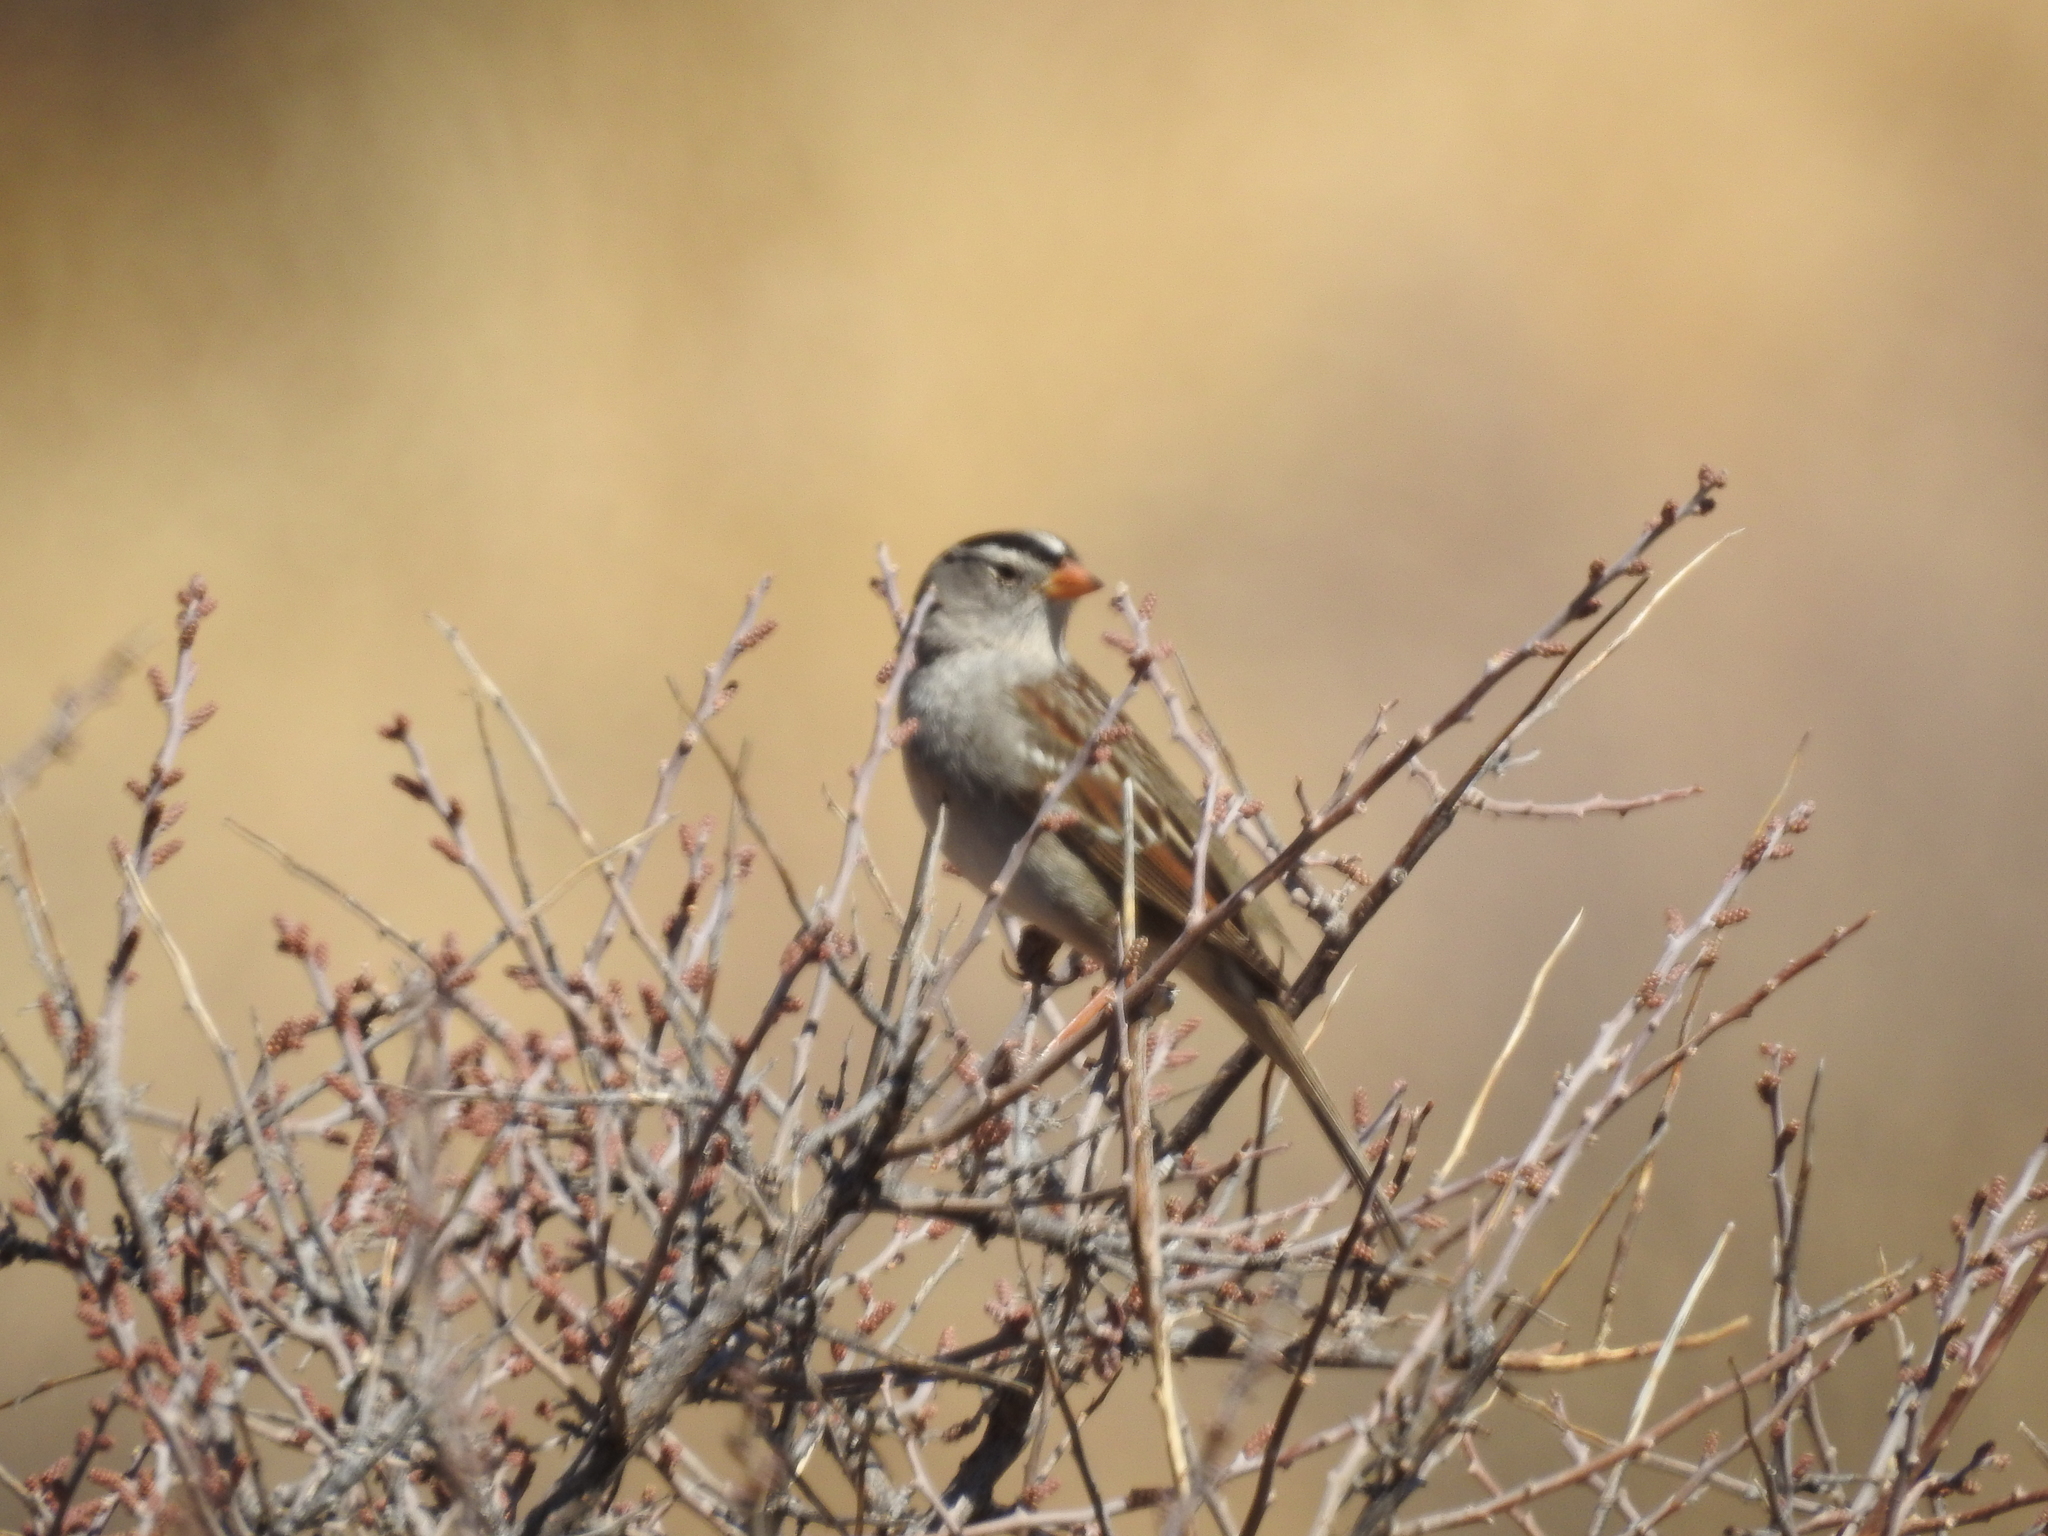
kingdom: Animalia
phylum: Chordata
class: Aves
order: Passeriformes
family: Passerellidae
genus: Zonotrichia
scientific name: Zonotrichia leucophrys
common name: White-crowned sparrow
